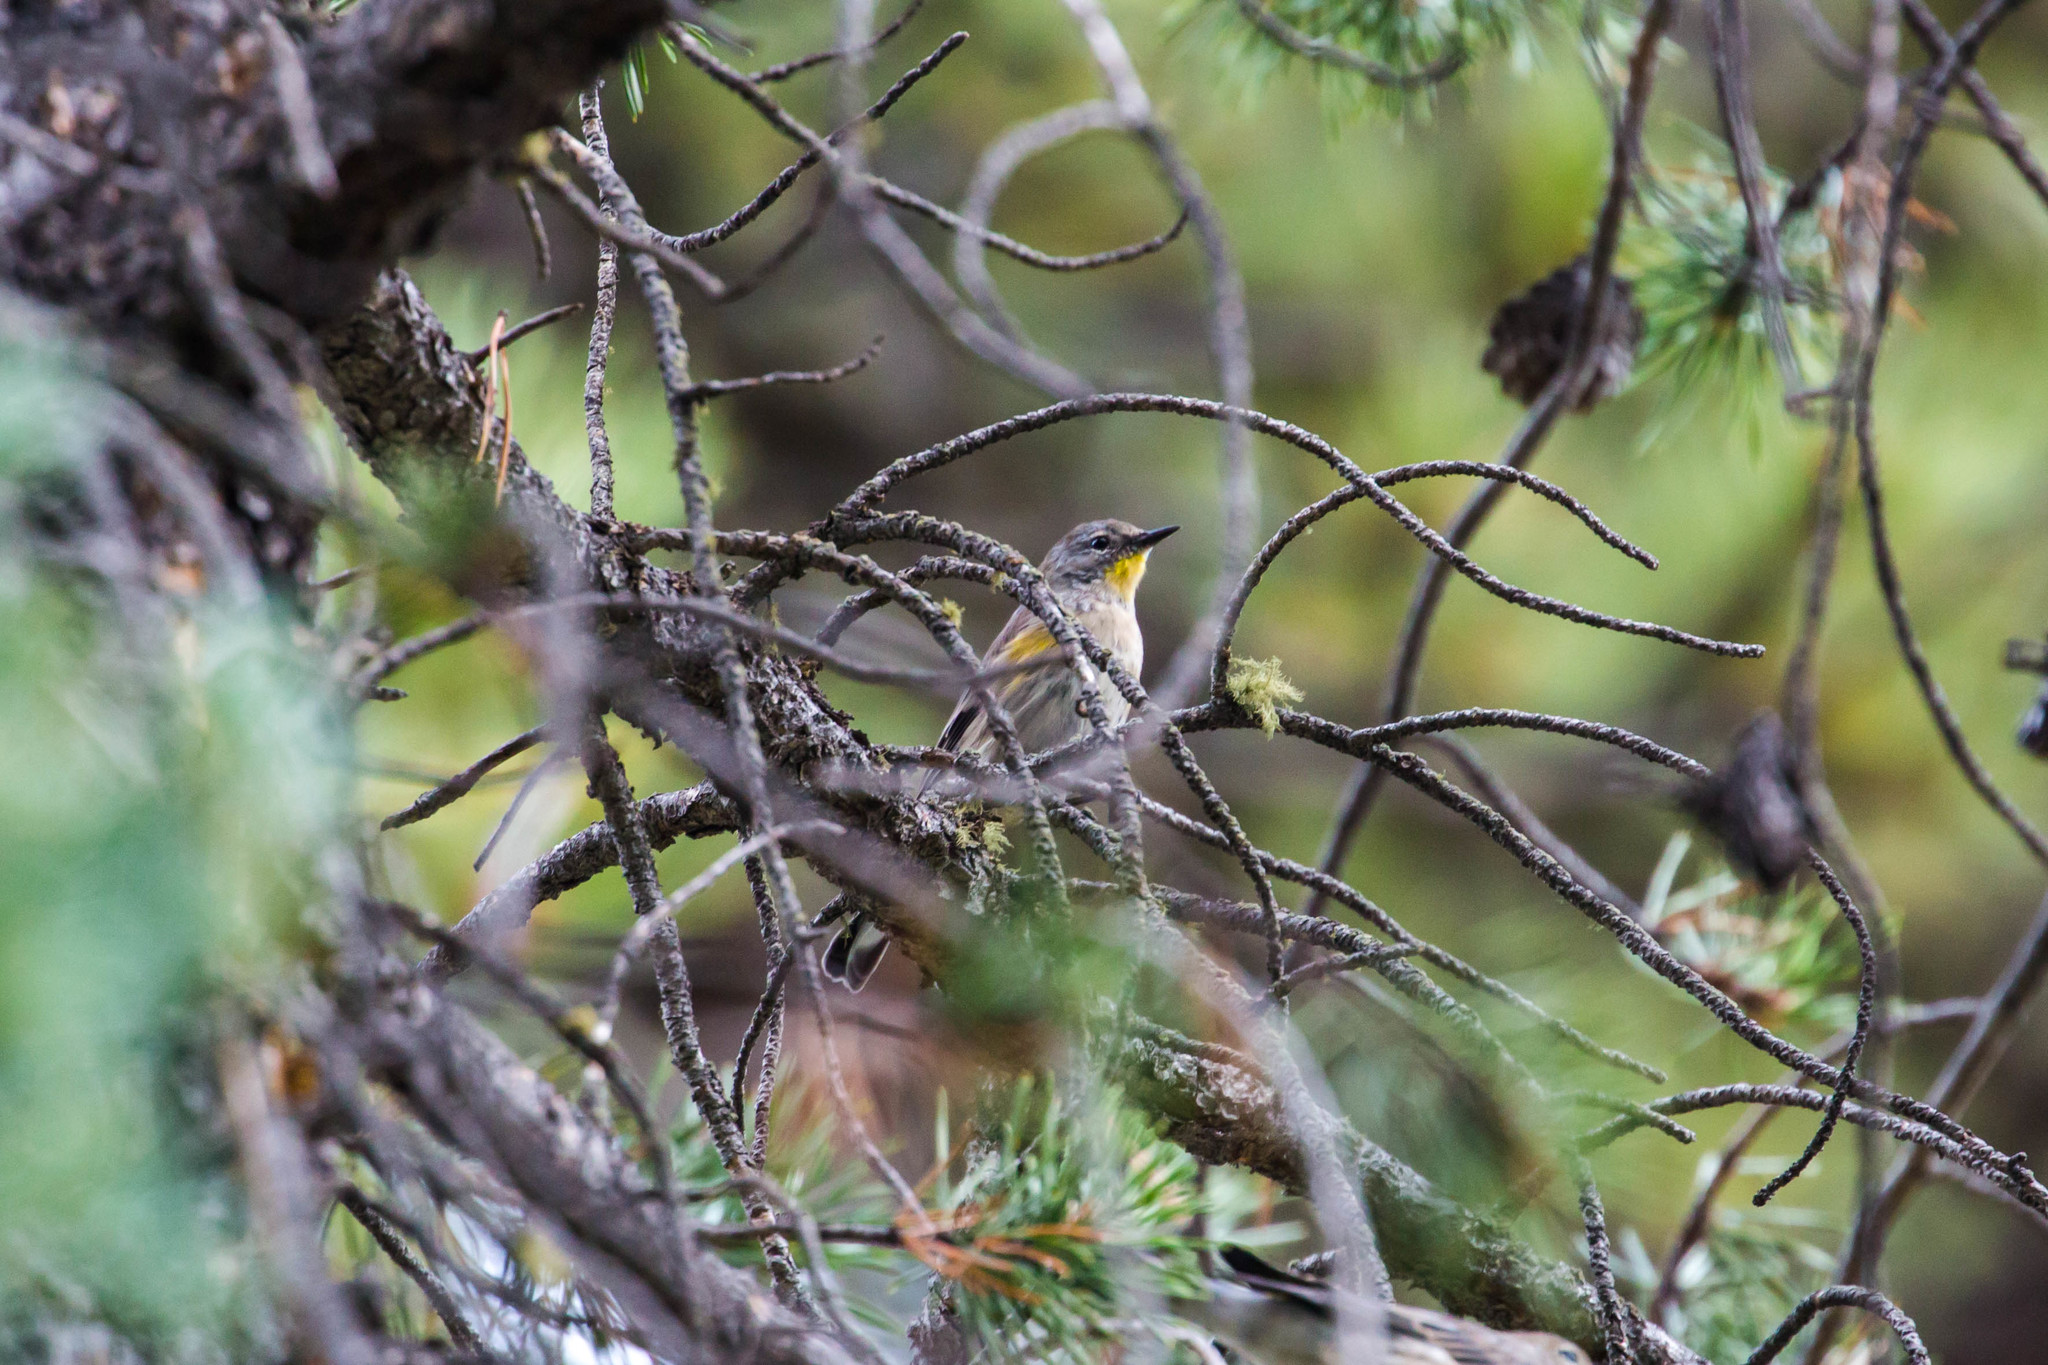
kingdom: Animalia
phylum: Chordata
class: Aves
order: Passeriformes
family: Parulidae
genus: Setophaga
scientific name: Setophaga coronata
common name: Myrtle warbler
